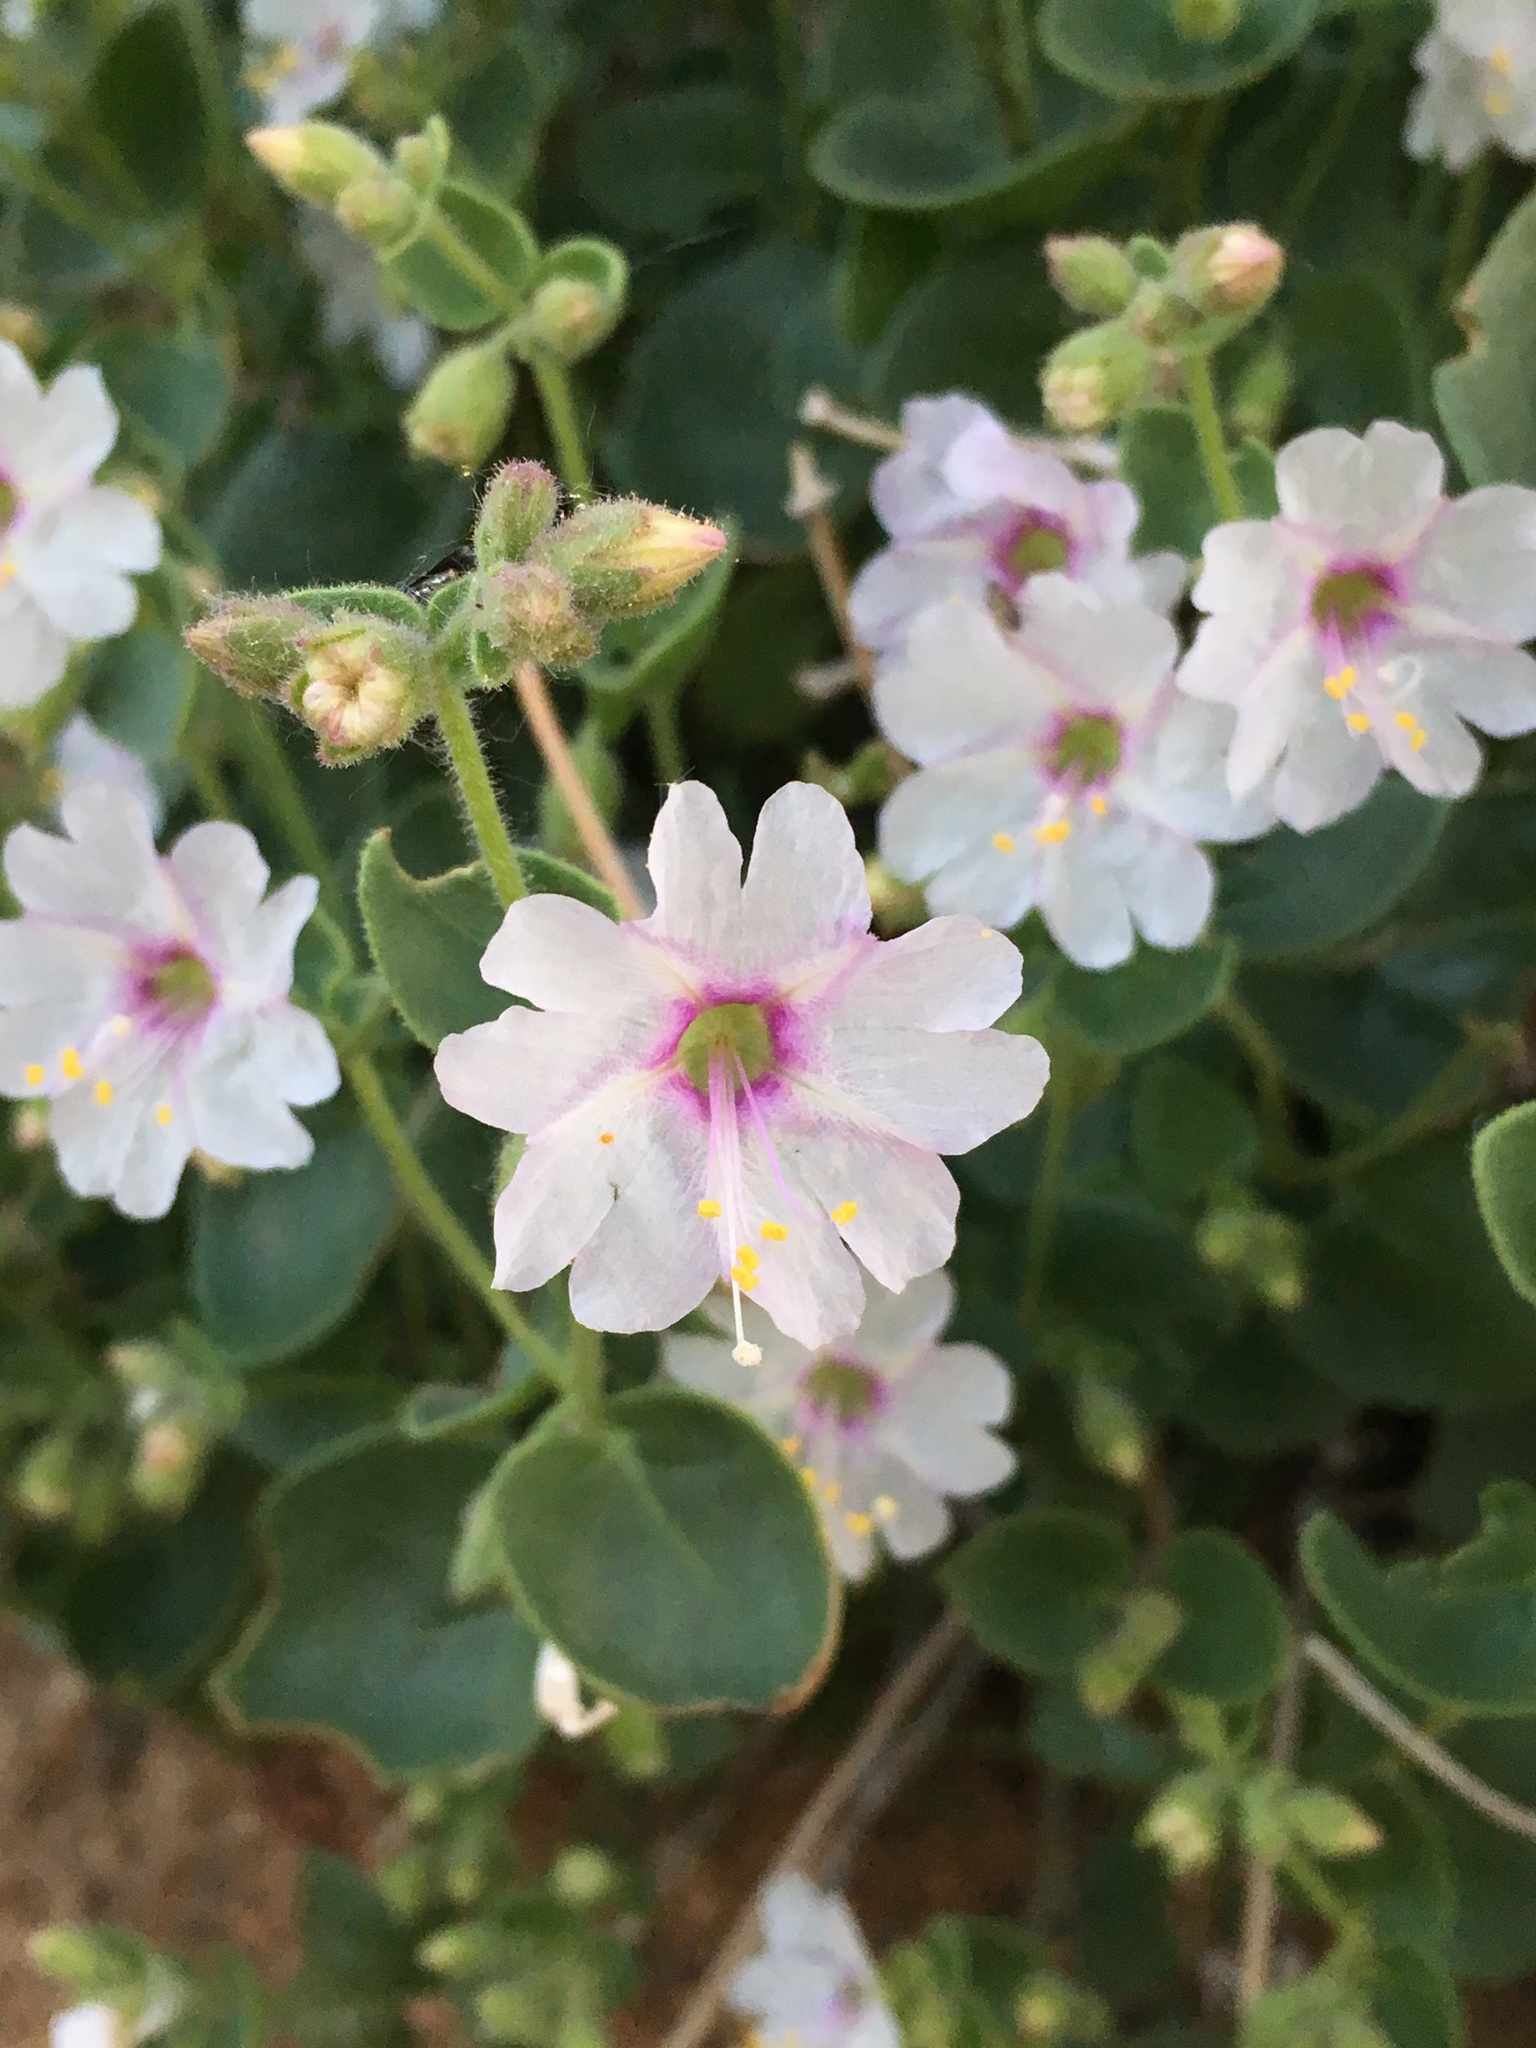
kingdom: Plantae
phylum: Tracheophyta
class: Magnoliopsida
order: Caryophyllales
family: Nyctaginaceae
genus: Mirabilis
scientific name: Mirabilis laevis
